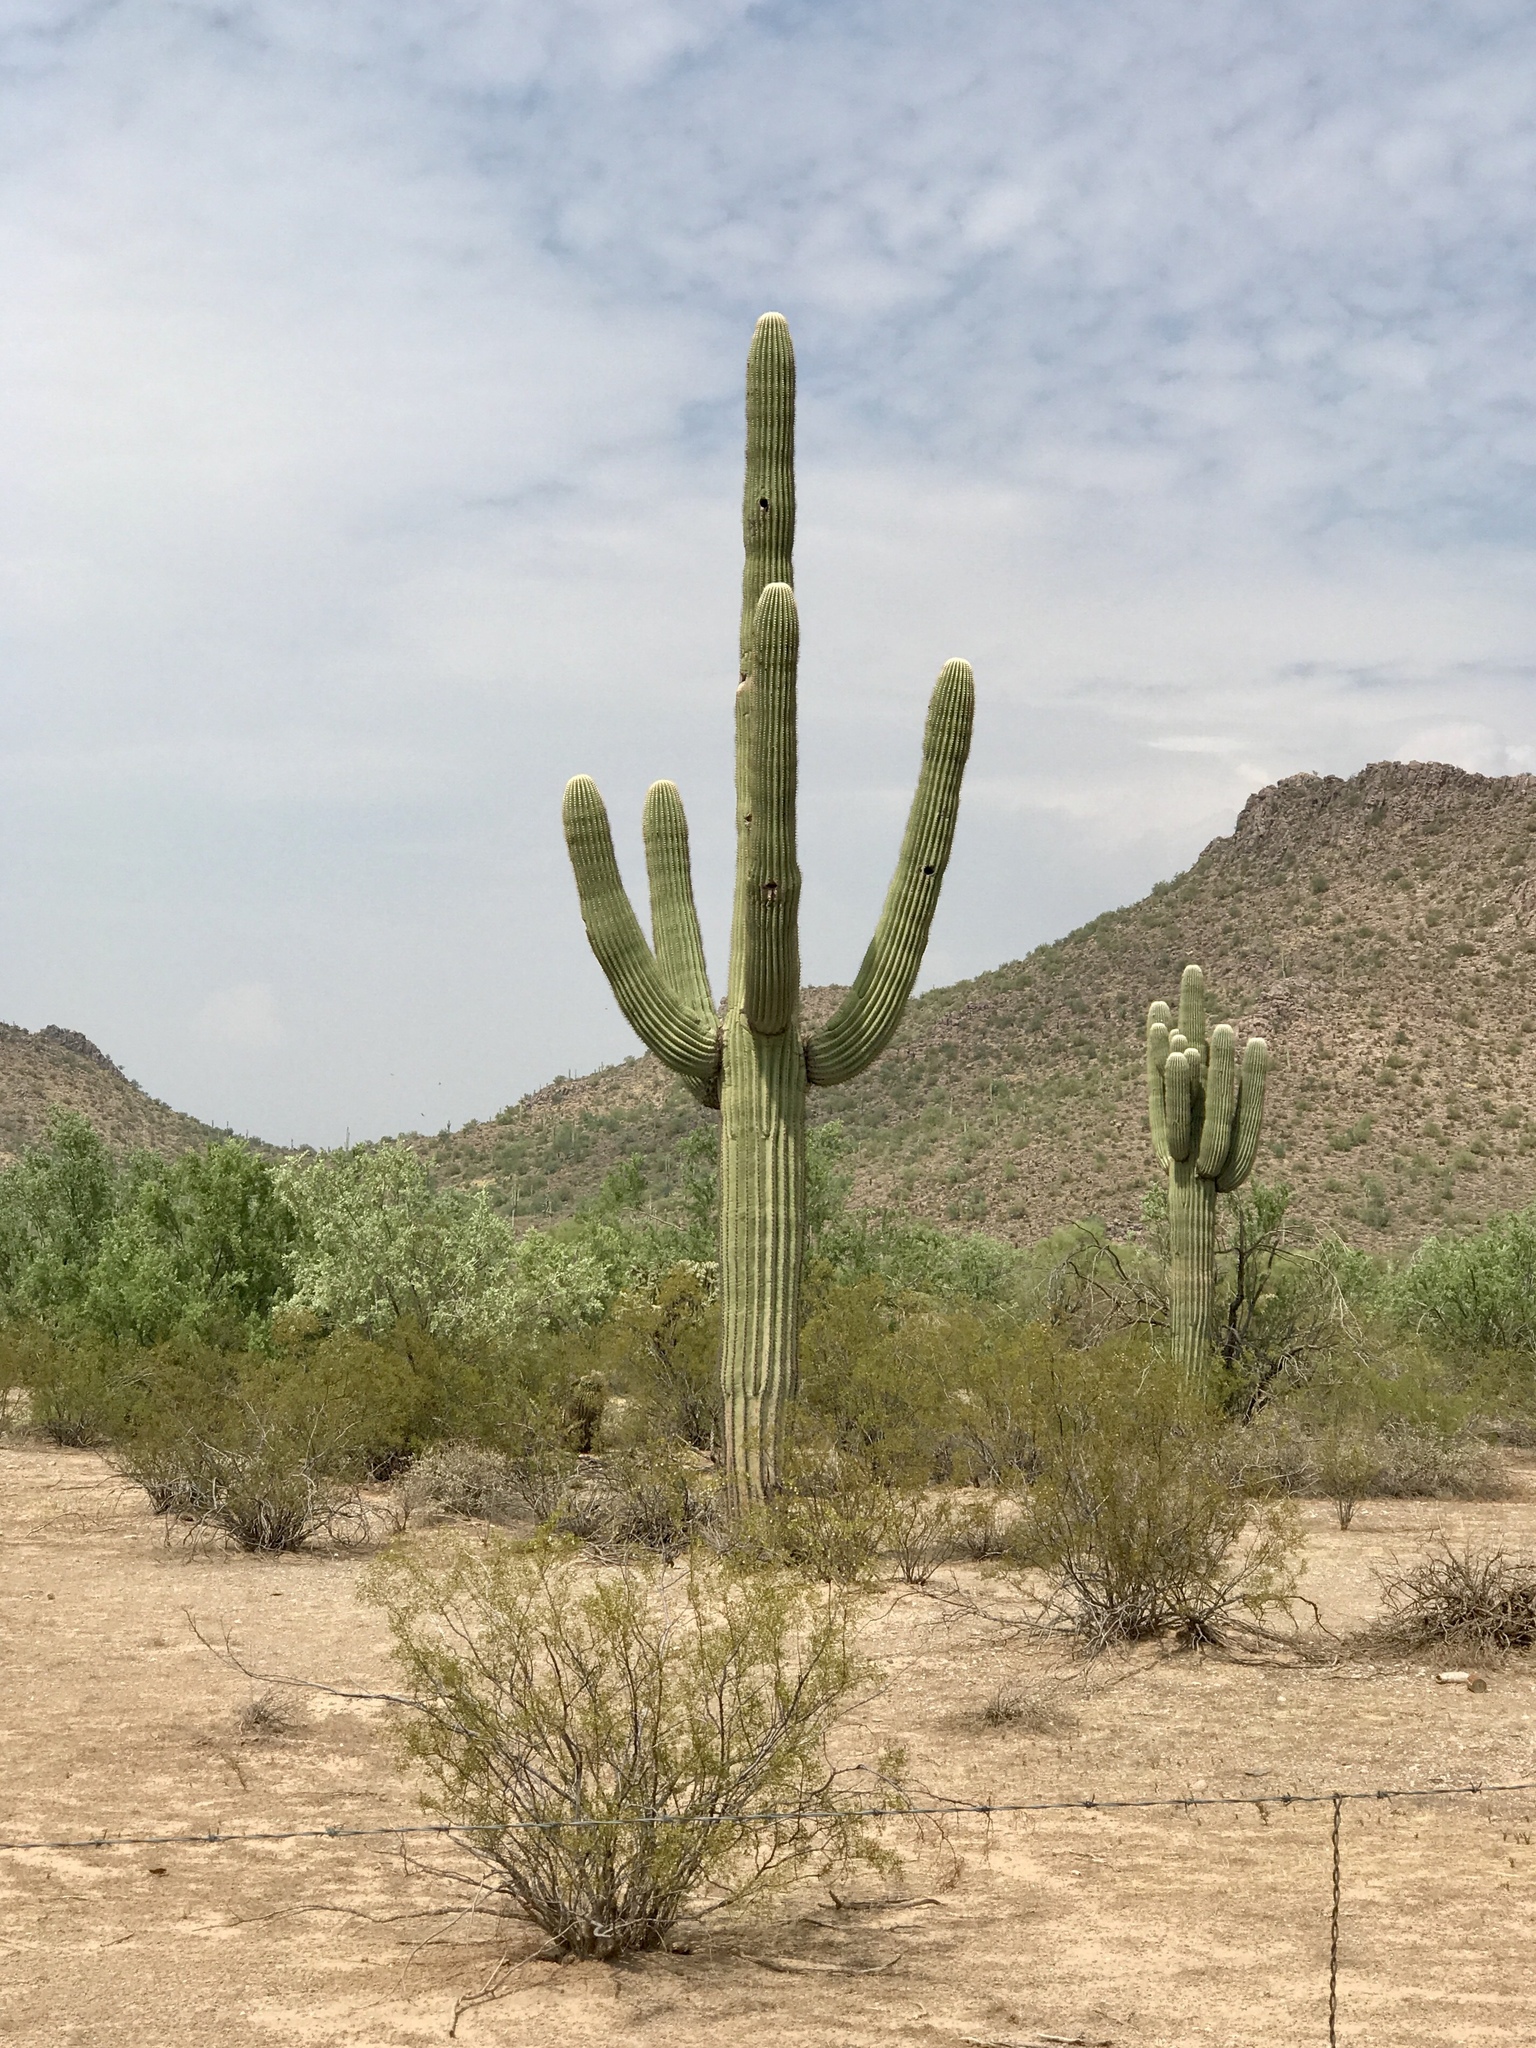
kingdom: Plantae
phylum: Tracheophyta
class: Magnoliopsida
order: Caryophyllales
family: Cactaceae
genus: Carnegiea
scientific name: Carnegiea gigantea
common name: Saguaro
